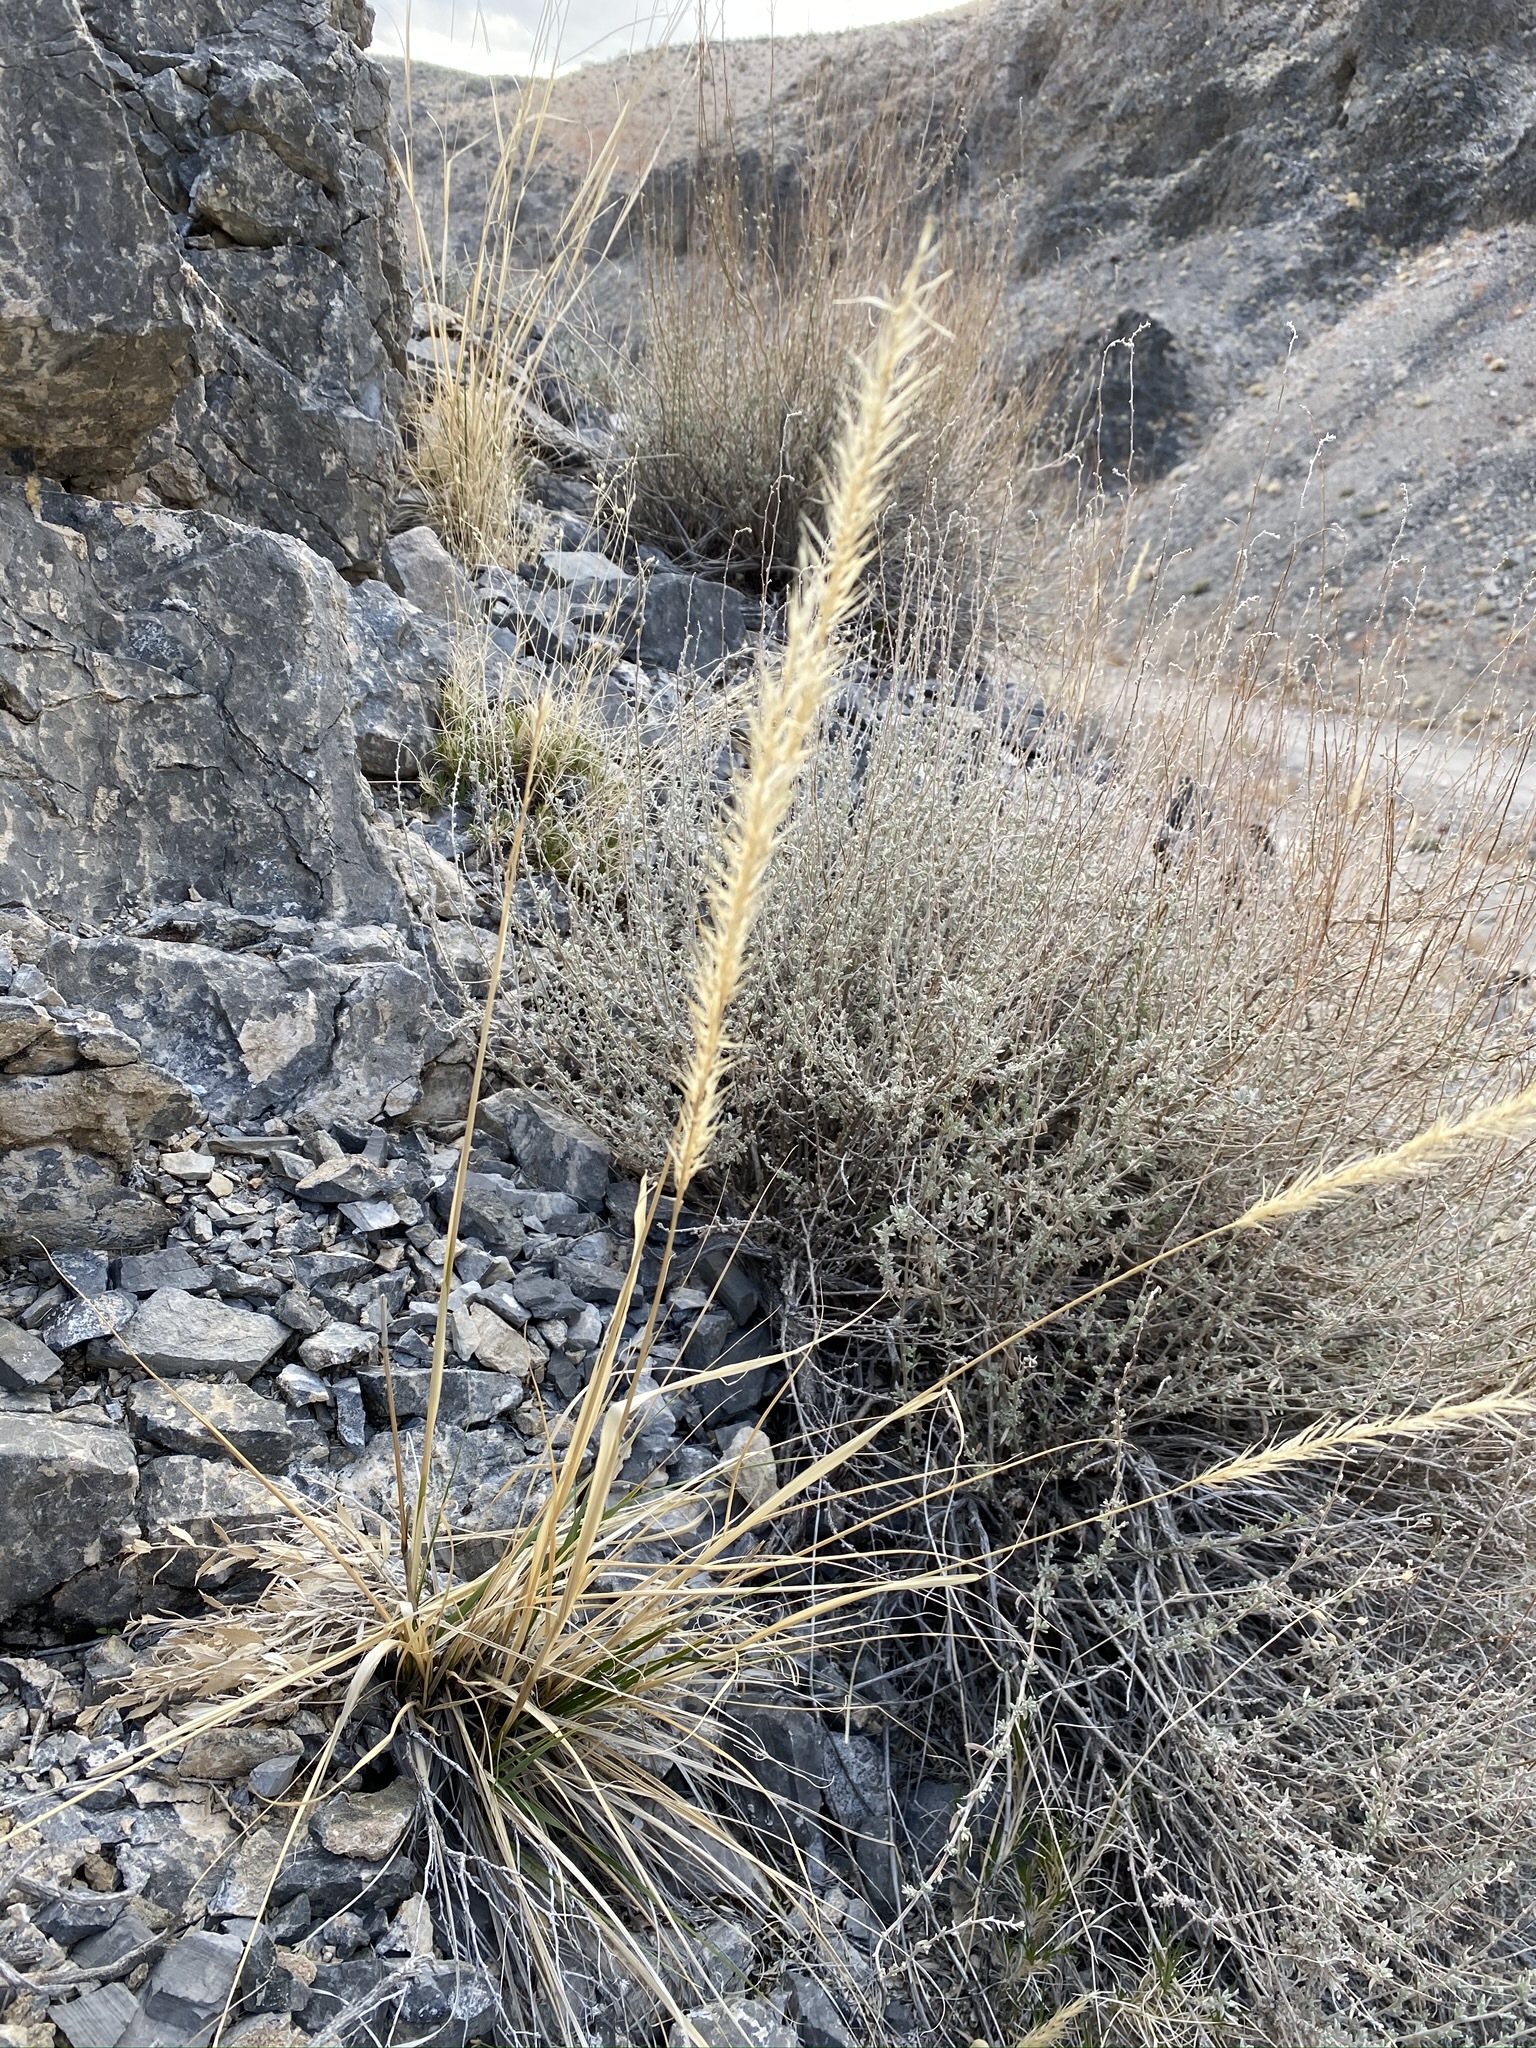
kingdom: Plantae
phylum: Tracheophyta
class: Liliopsida
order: Poales
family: Poaceae
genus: Eriocoma
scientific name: Eriocoma parishii
